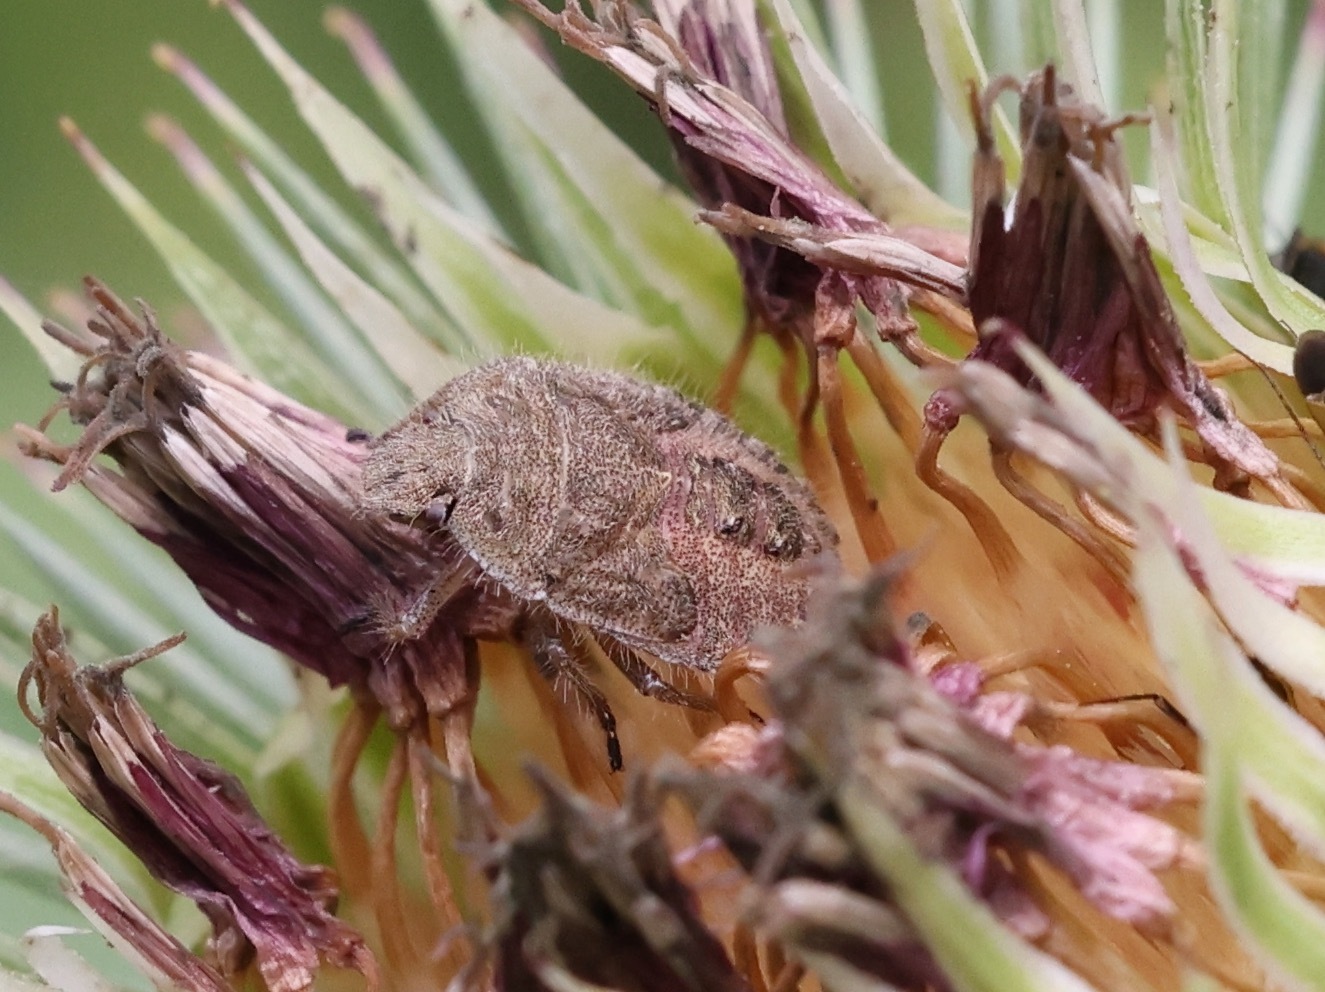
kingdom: Animalia
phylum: Arthropoda
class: Insecta
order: Hemiptera
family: Pentatomidae
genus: Dolycoris
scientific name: Dolycoris baccarum
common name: Sloe bug
